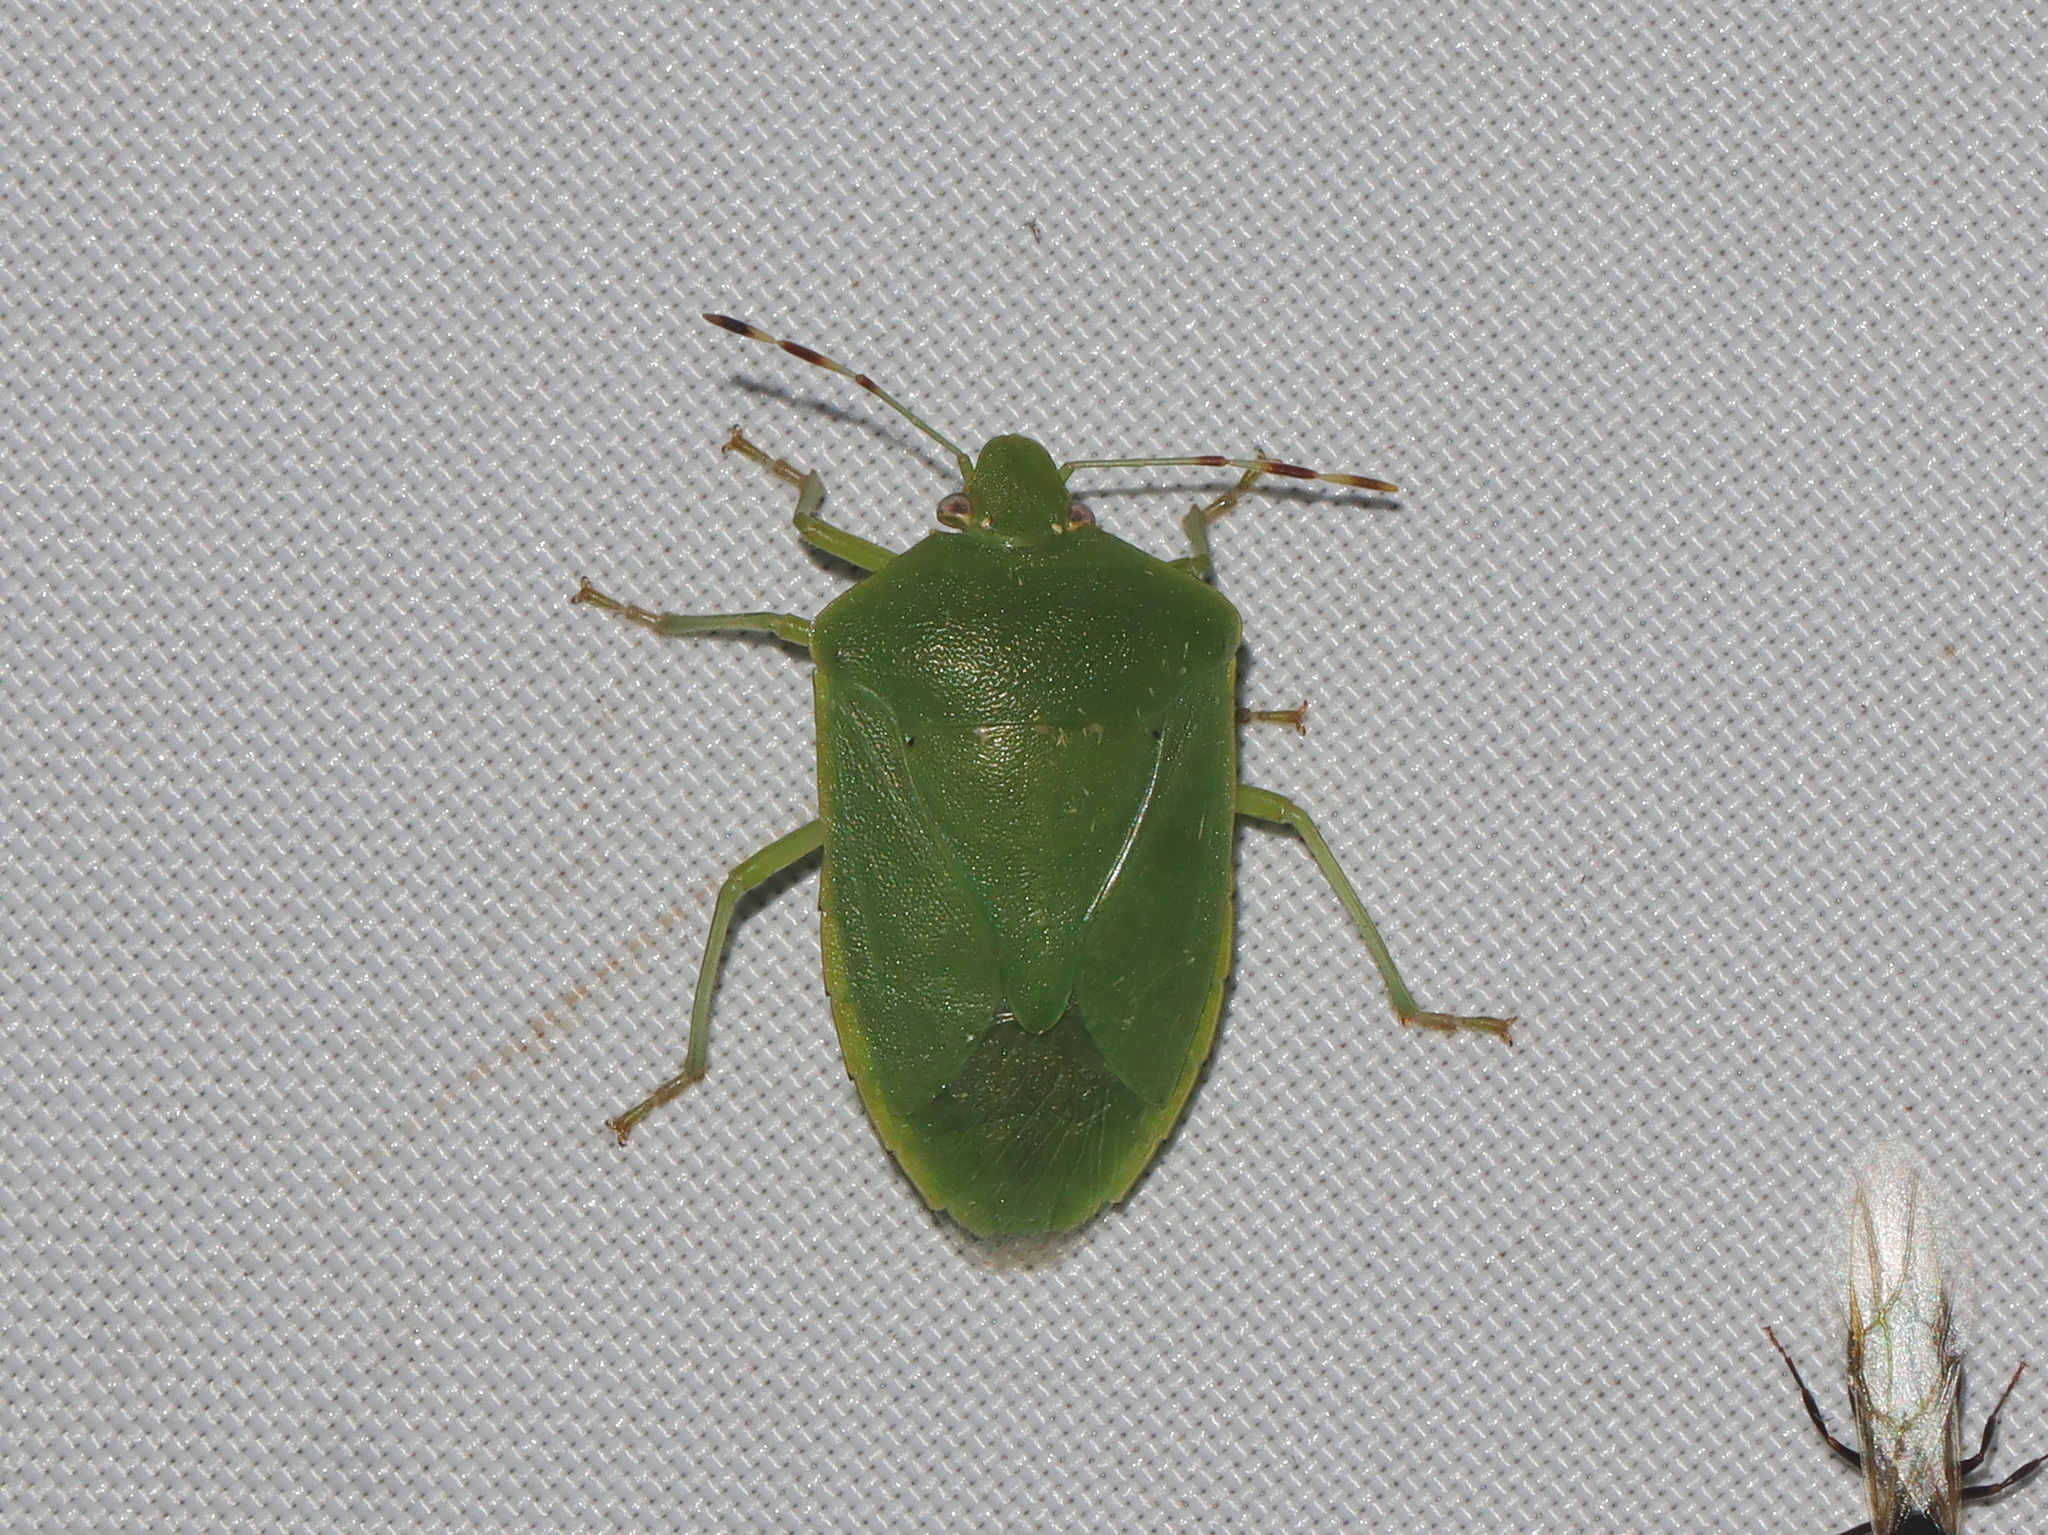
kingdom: Animalia
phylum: Arthropoda
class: Insecta
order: Hemiptera
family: Pentatomidae
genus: Nezara
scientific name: Nezara viridula
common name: Southern green stink bug
